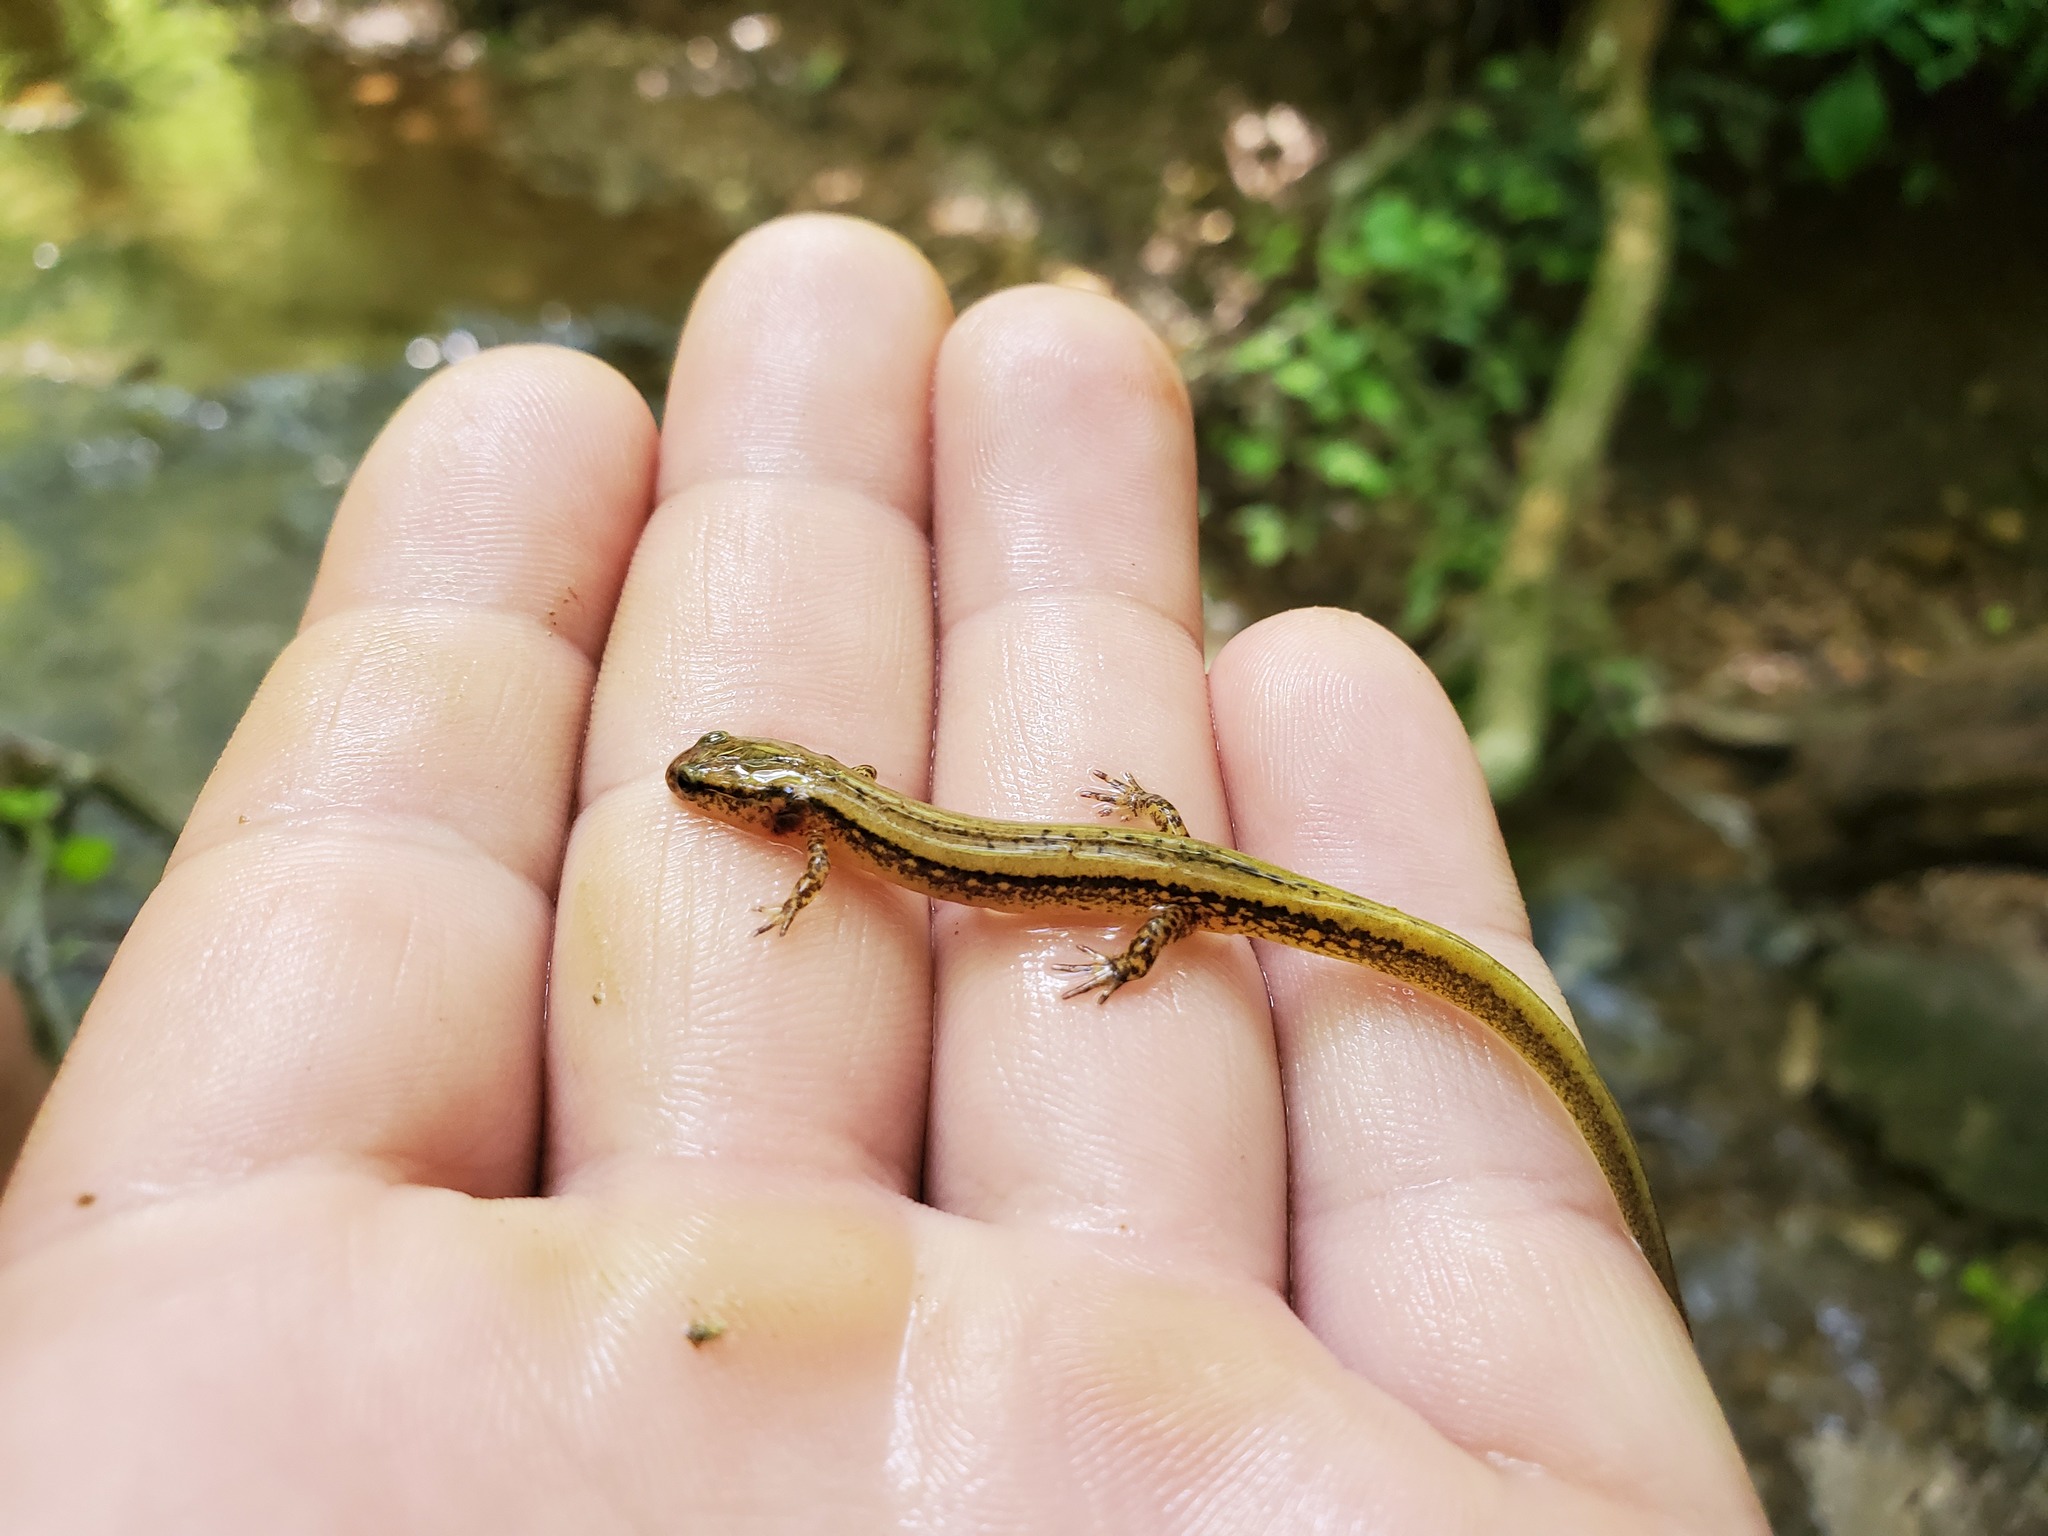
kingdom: Animalia
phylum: Chordata
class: Amphibia
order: Caudata
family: Plethodontidae
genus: Eurycea
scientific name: Eurycea cirrigera
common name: Southern two-lined salamander
